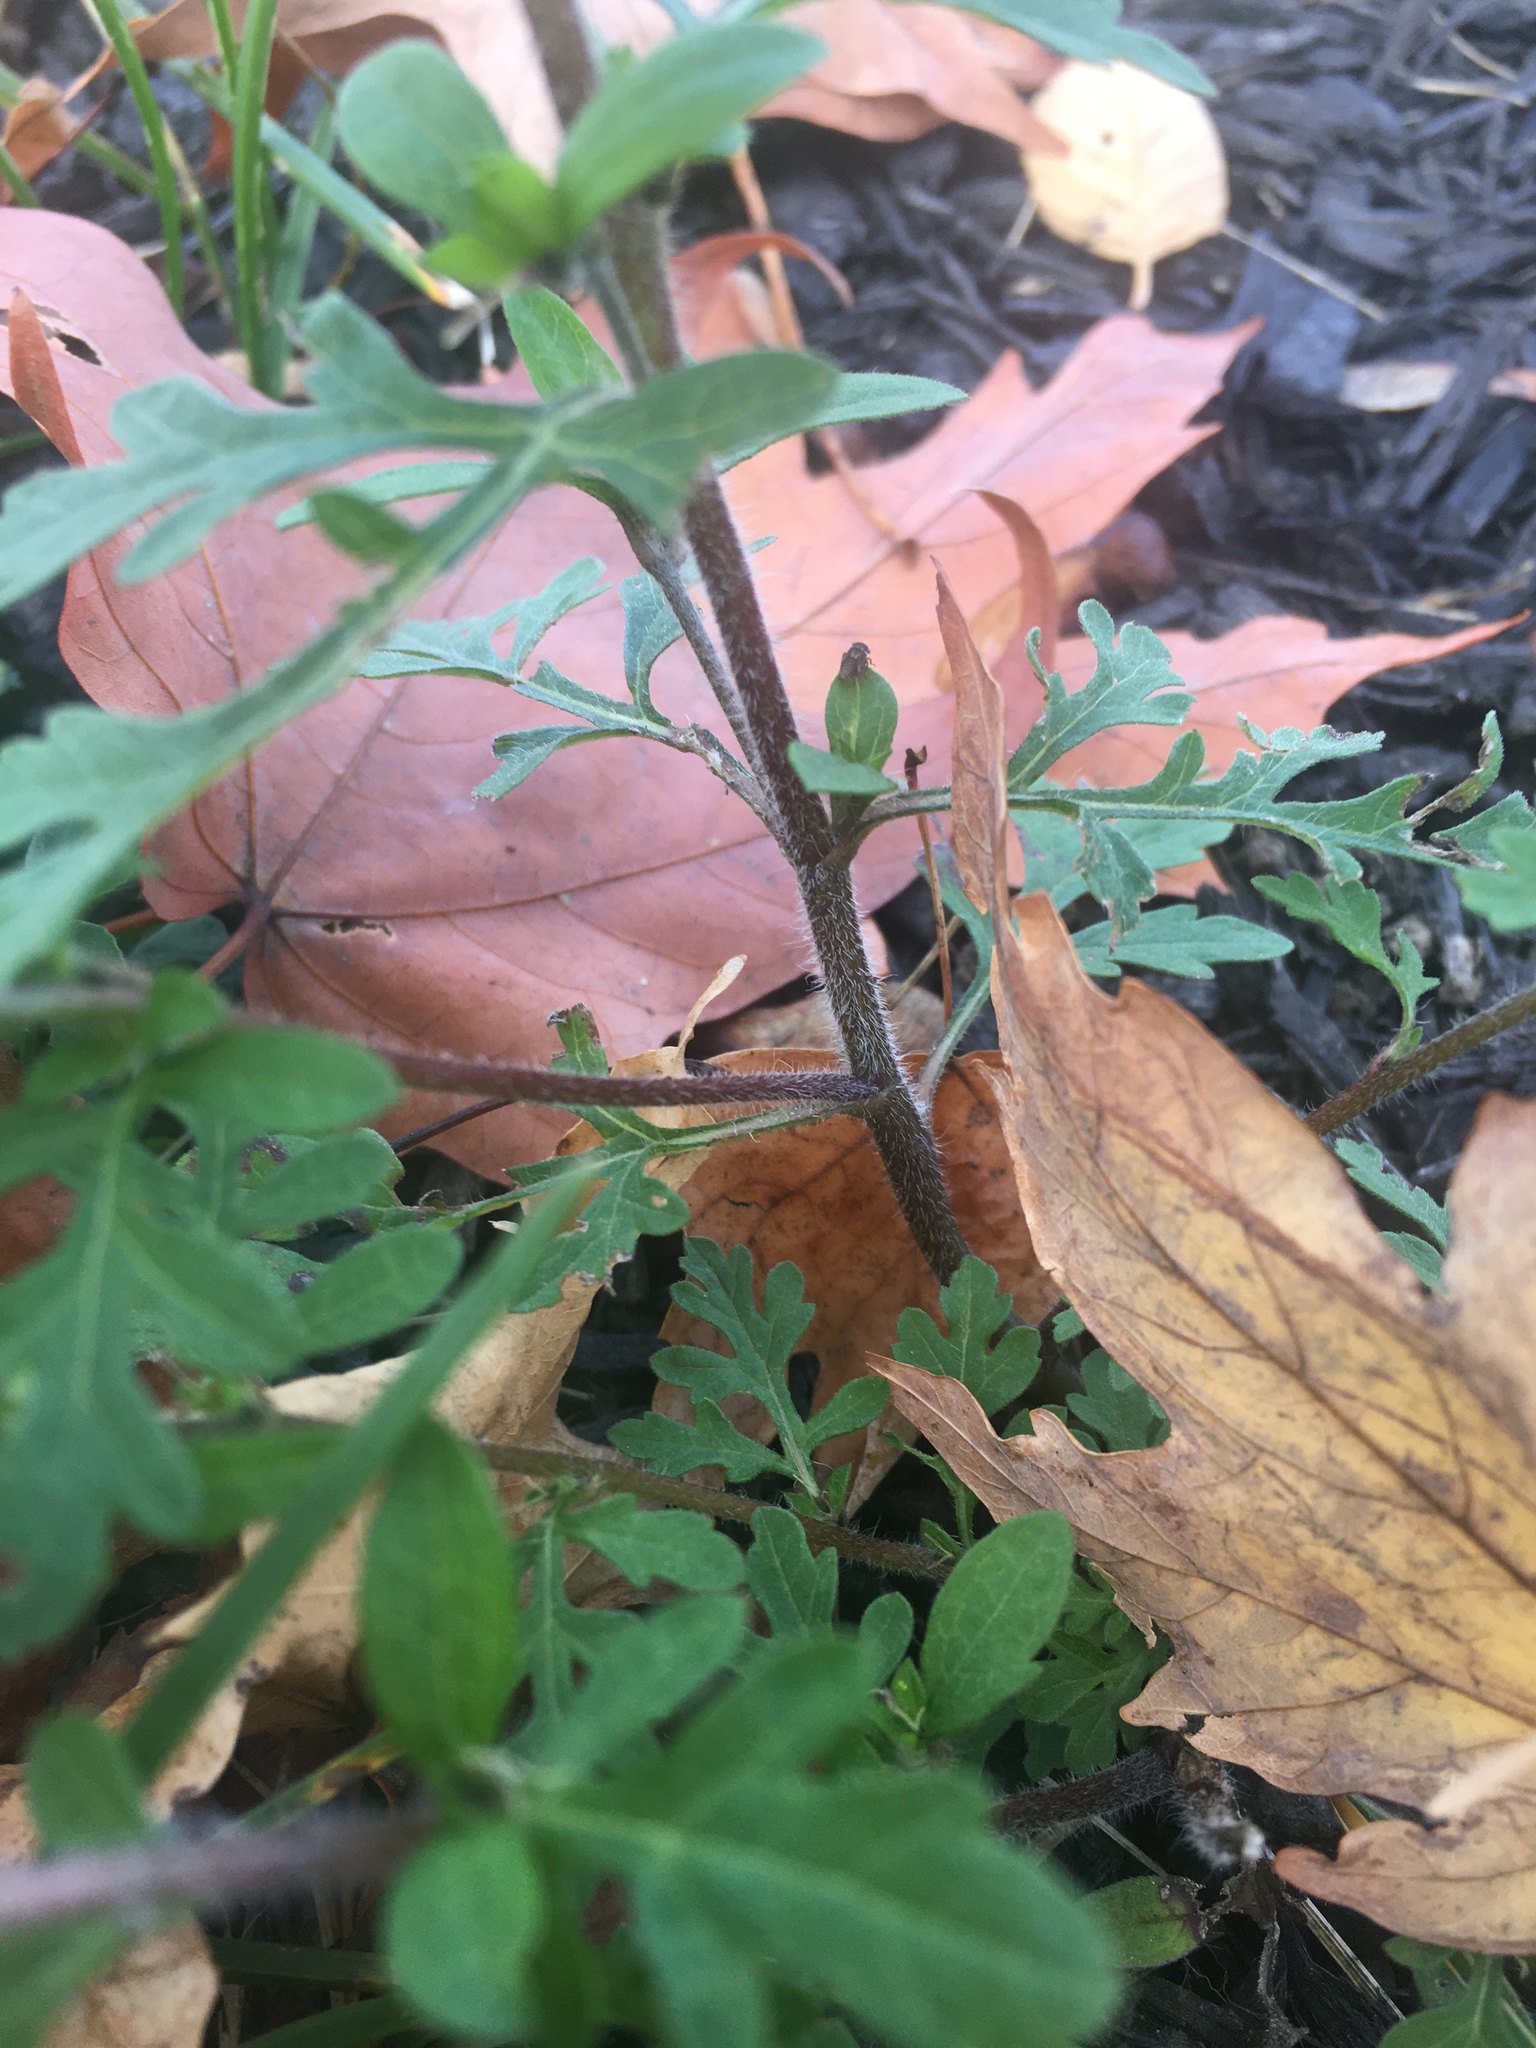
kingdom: Plantae
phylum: Tracheophyta
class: Magnoliopsida
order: Asterales
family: Asteraceae
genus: Ambrosia
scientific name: Ambrosia artemisiifolia
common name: Annual ragweed
